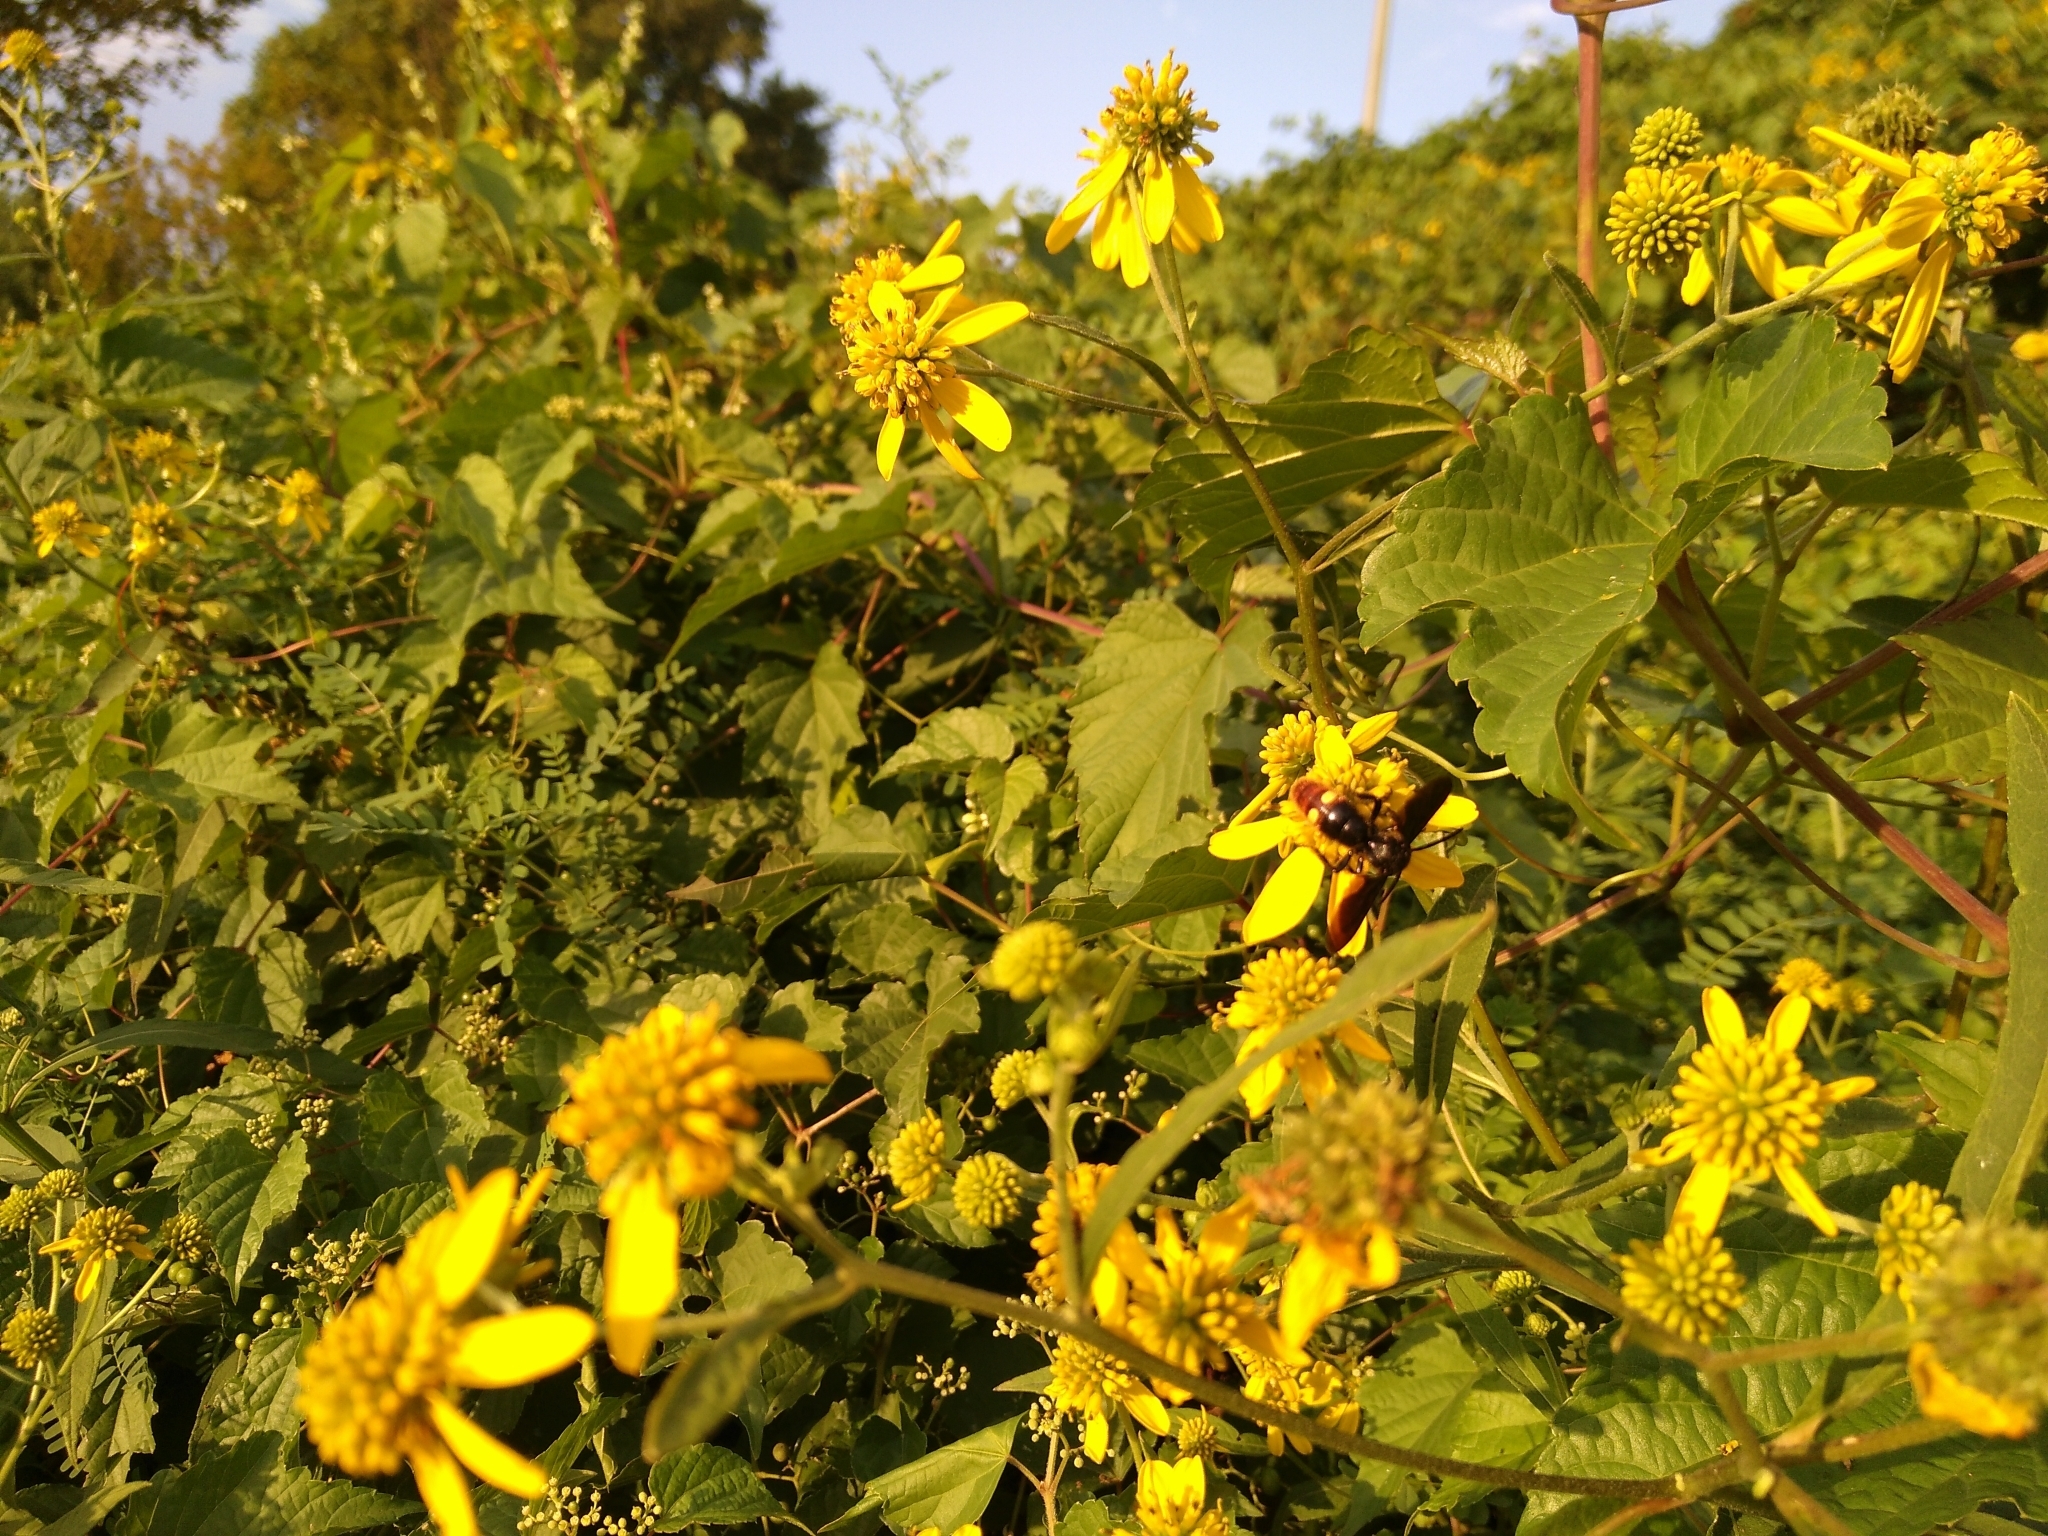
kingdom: Animalia
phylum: Arthropoda
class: Insecta
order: Hymenoptera
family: Scoliidae
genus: Scolia
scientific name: Scolia dubia
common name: Blue-winged scoliid wasp
